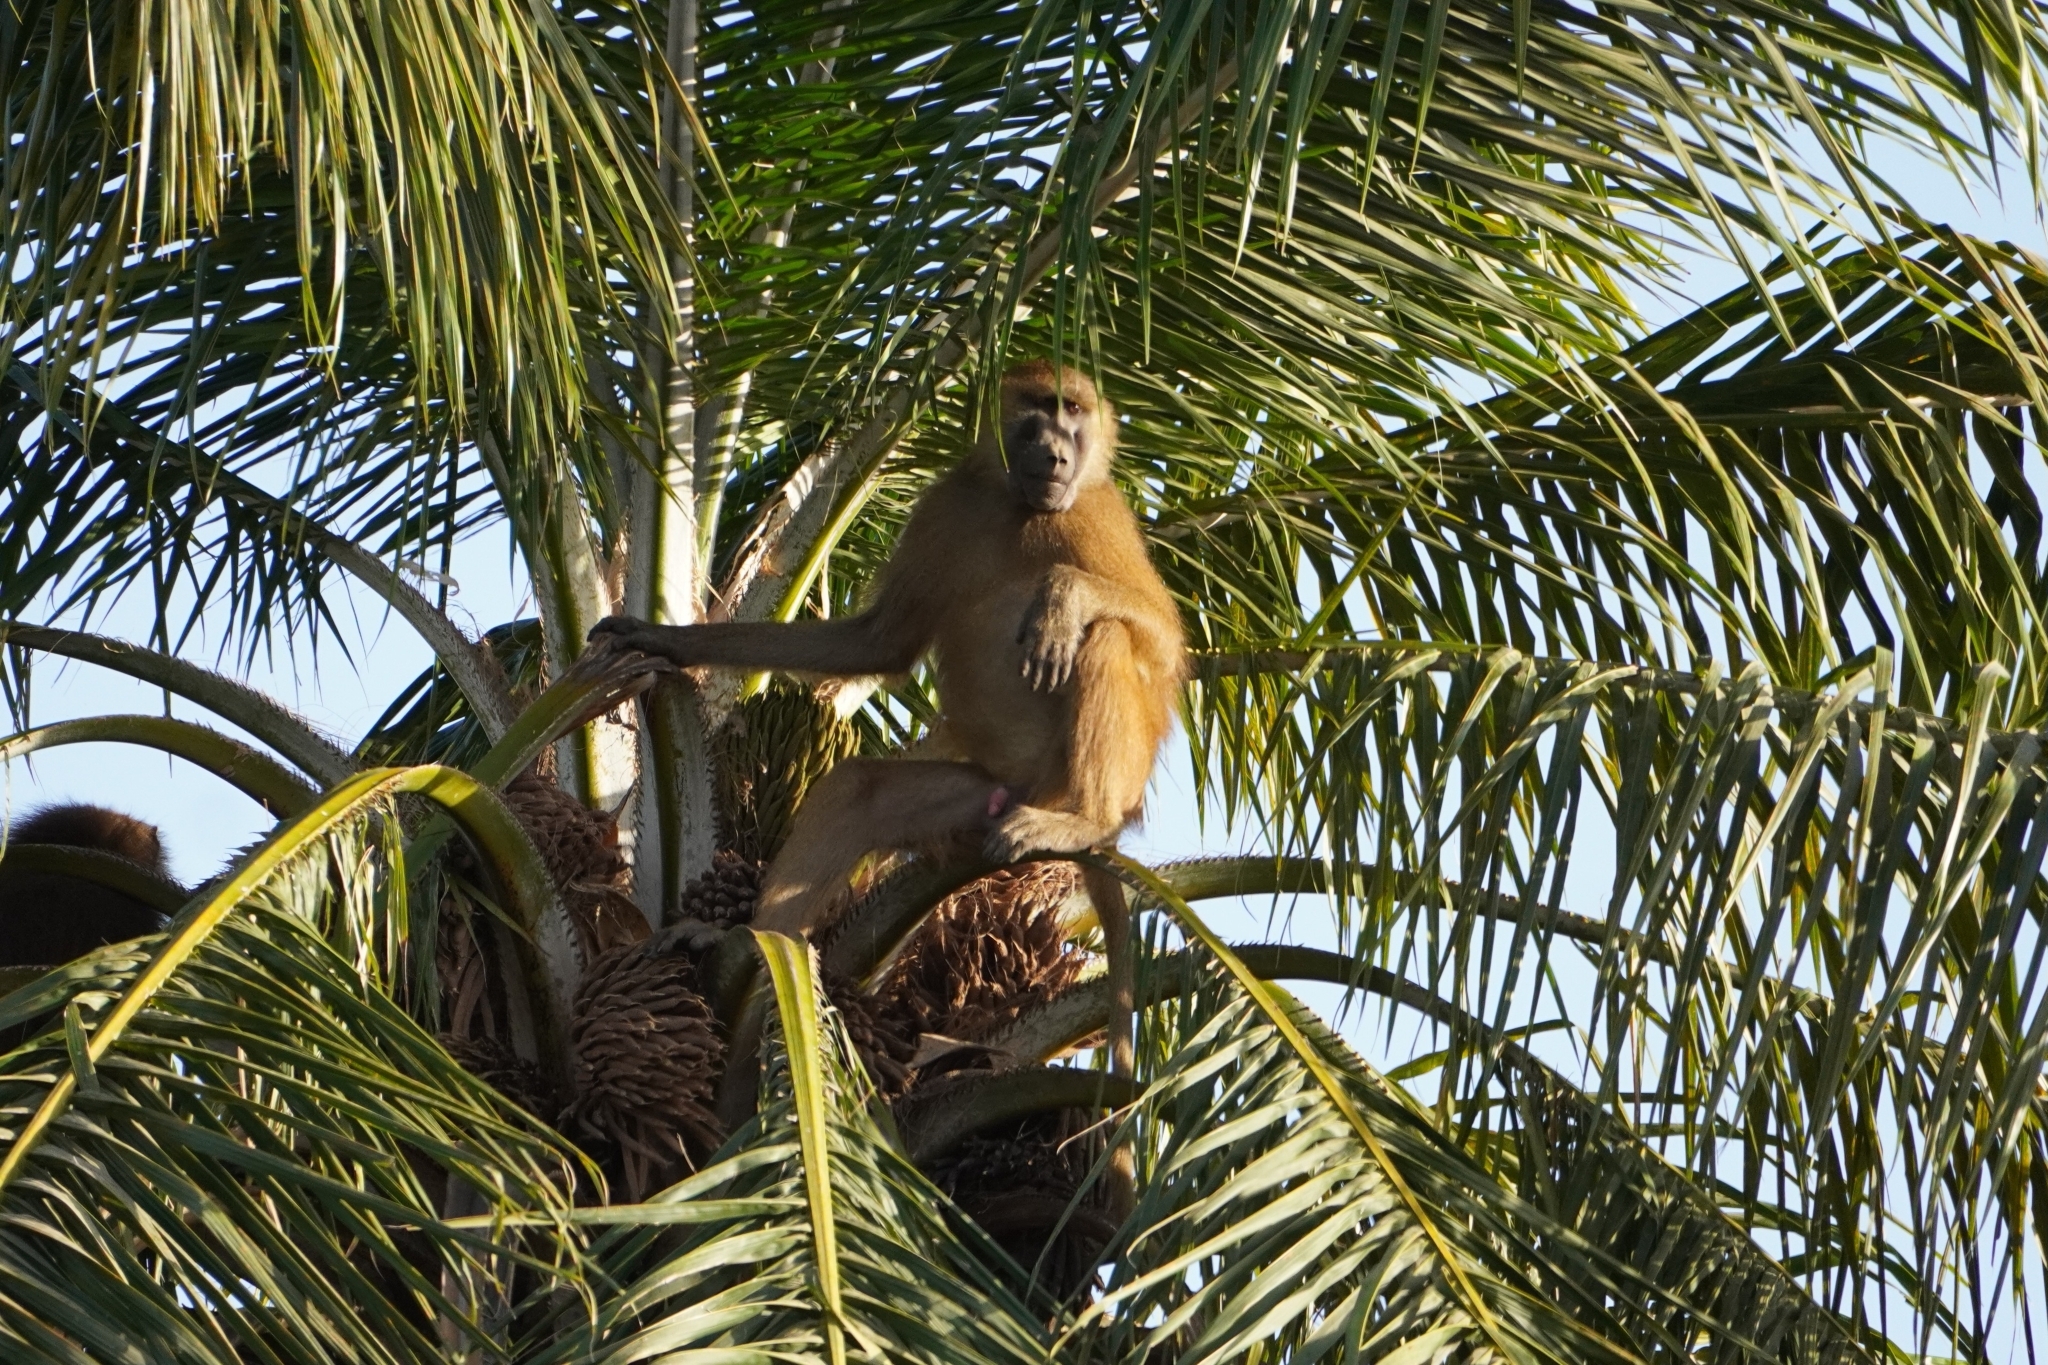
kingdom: Animalia
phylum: Chordata
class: Mammalia
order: Primates
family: Cercopithecidae
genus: Papio
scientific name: Papio papio
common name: Guinea baboon
